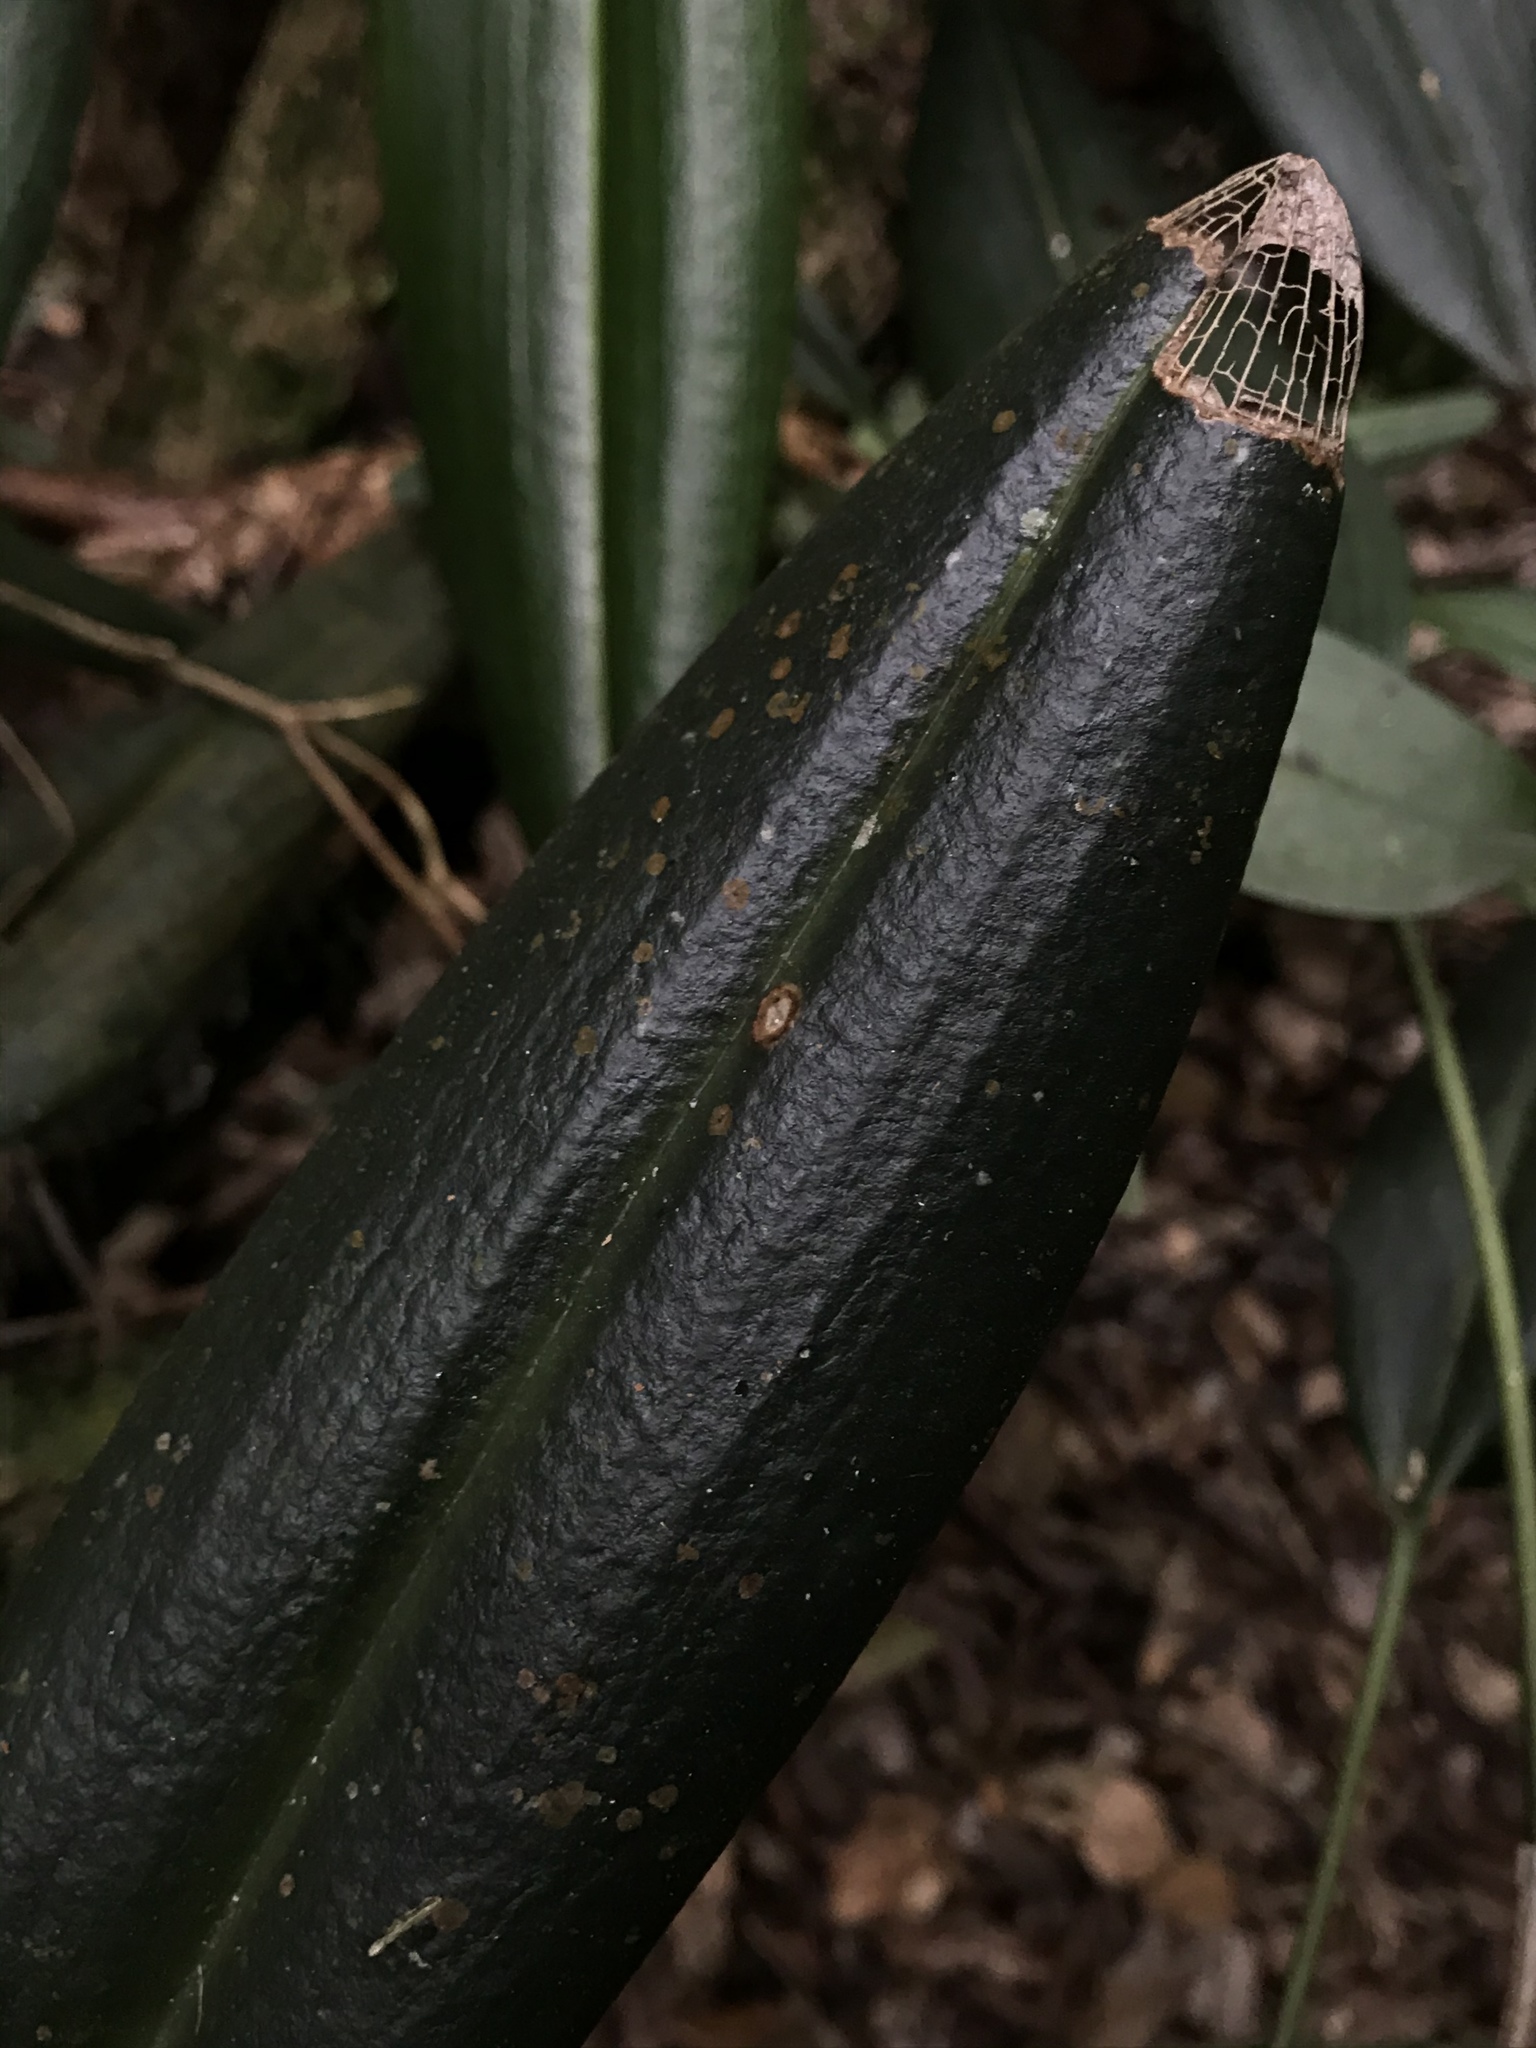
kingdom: Plantae
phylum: Tracheophyta
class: Liliopsida
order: Asparagales
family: Orchidaceae
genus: Pleurothallis
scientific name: Pleurothallis restrepioides
